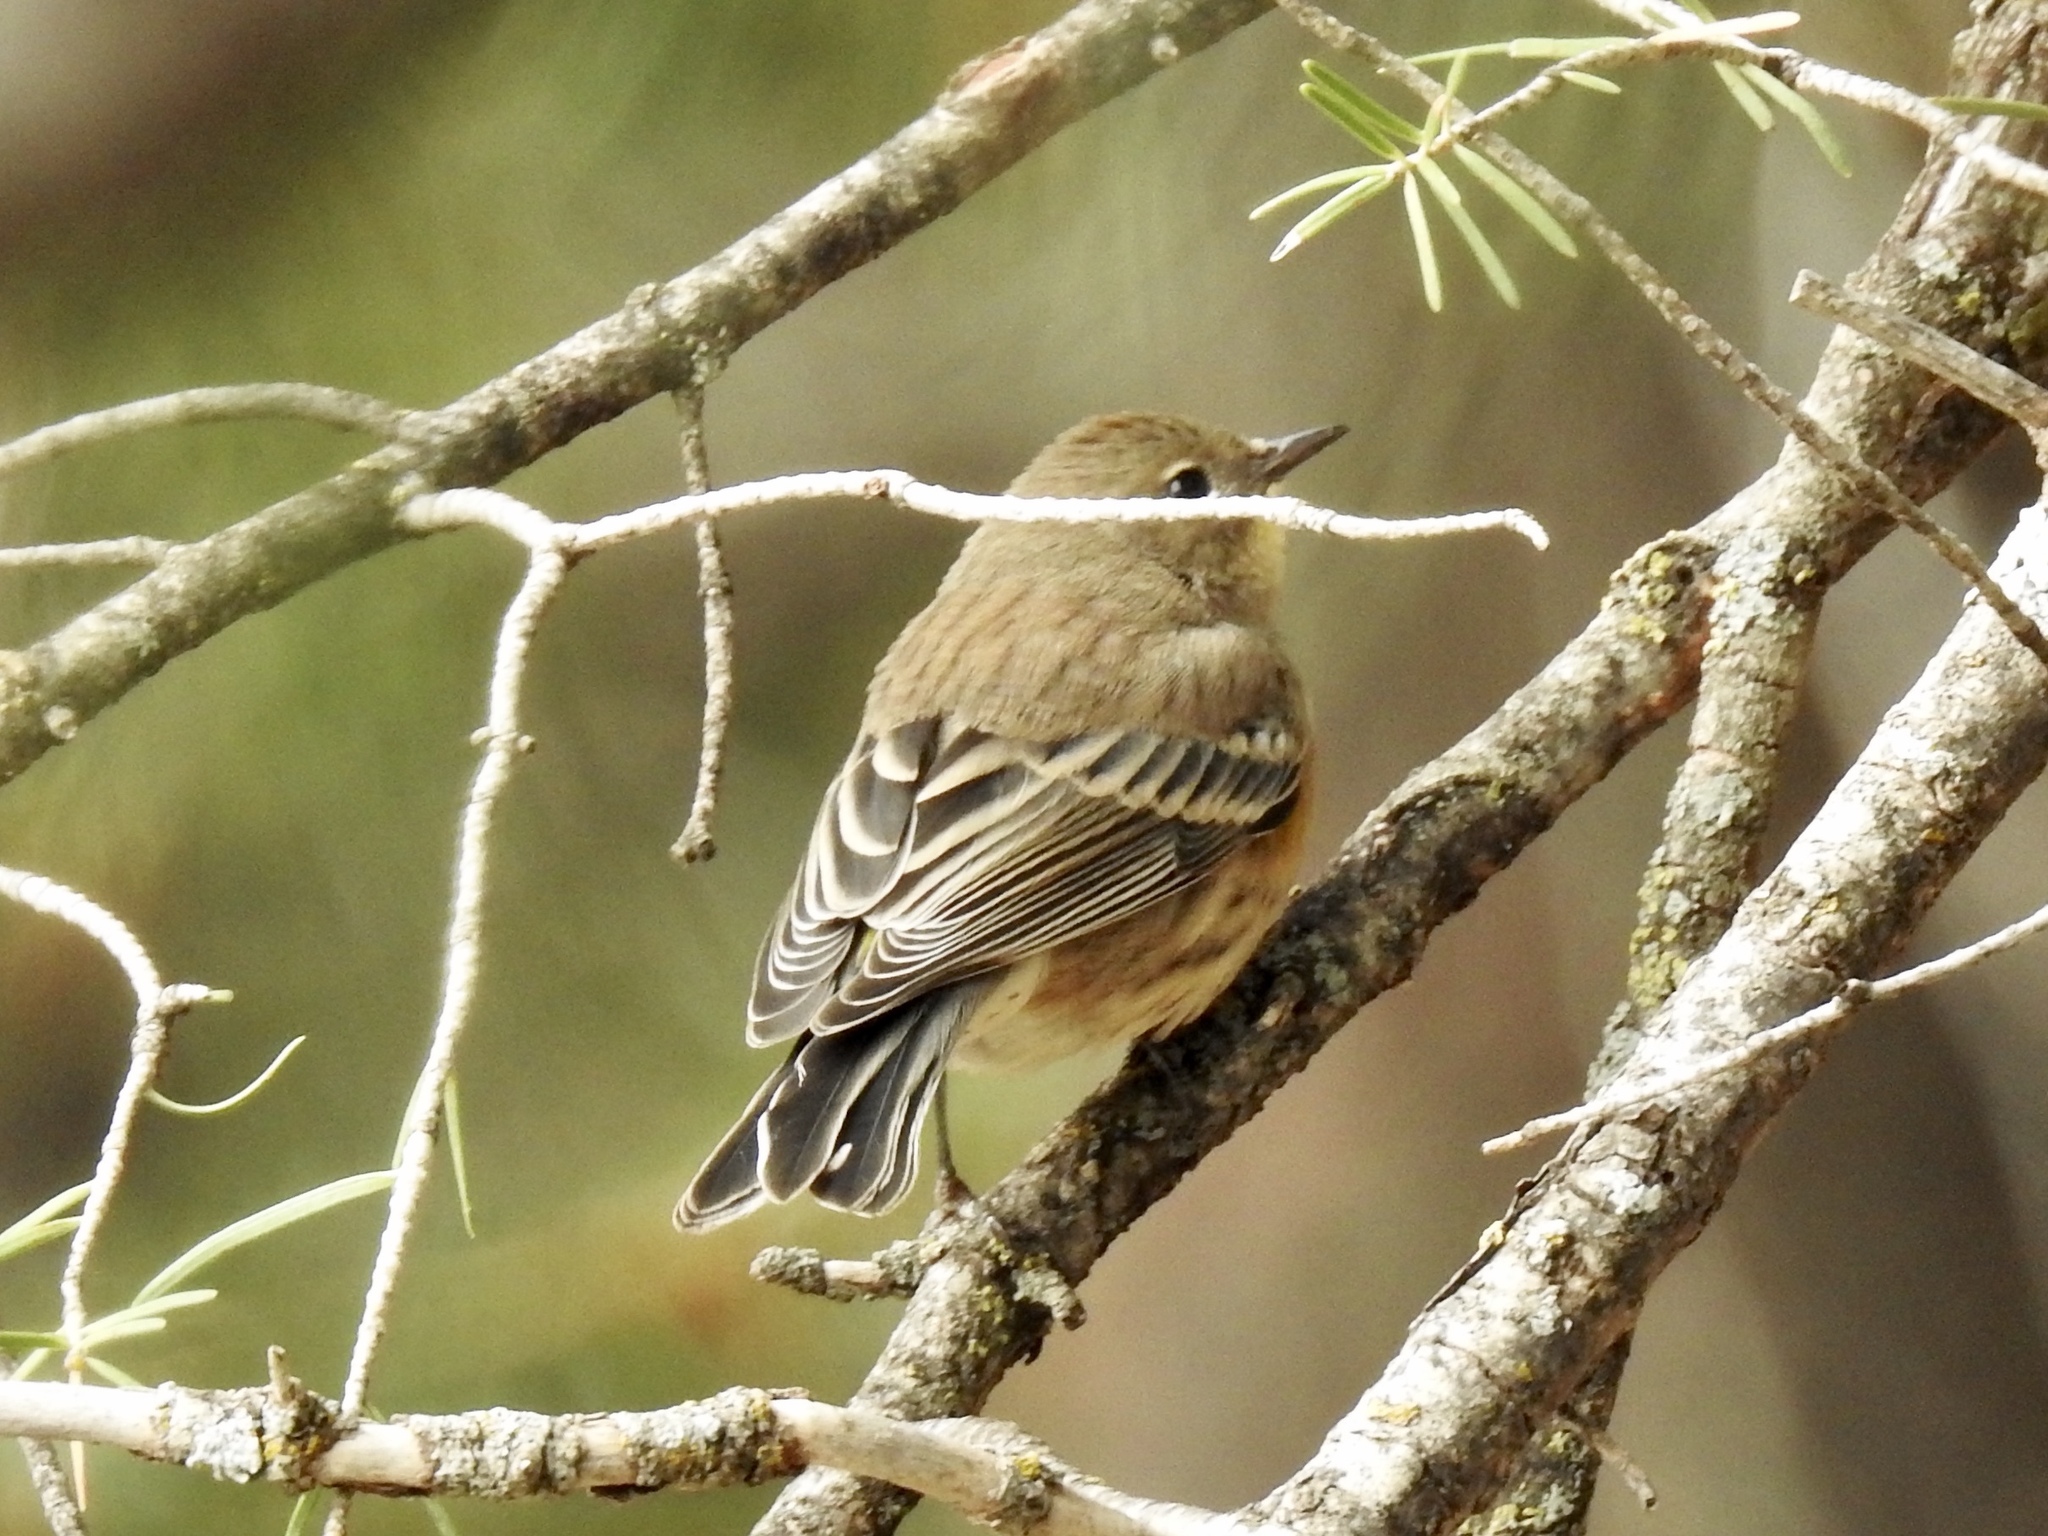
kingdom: Animalia
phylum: Chordata
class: Aves
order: Passeriformes
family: Parulidae
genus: Setophaga
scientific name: Setophaga auduboni
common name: Audubon's warbler
